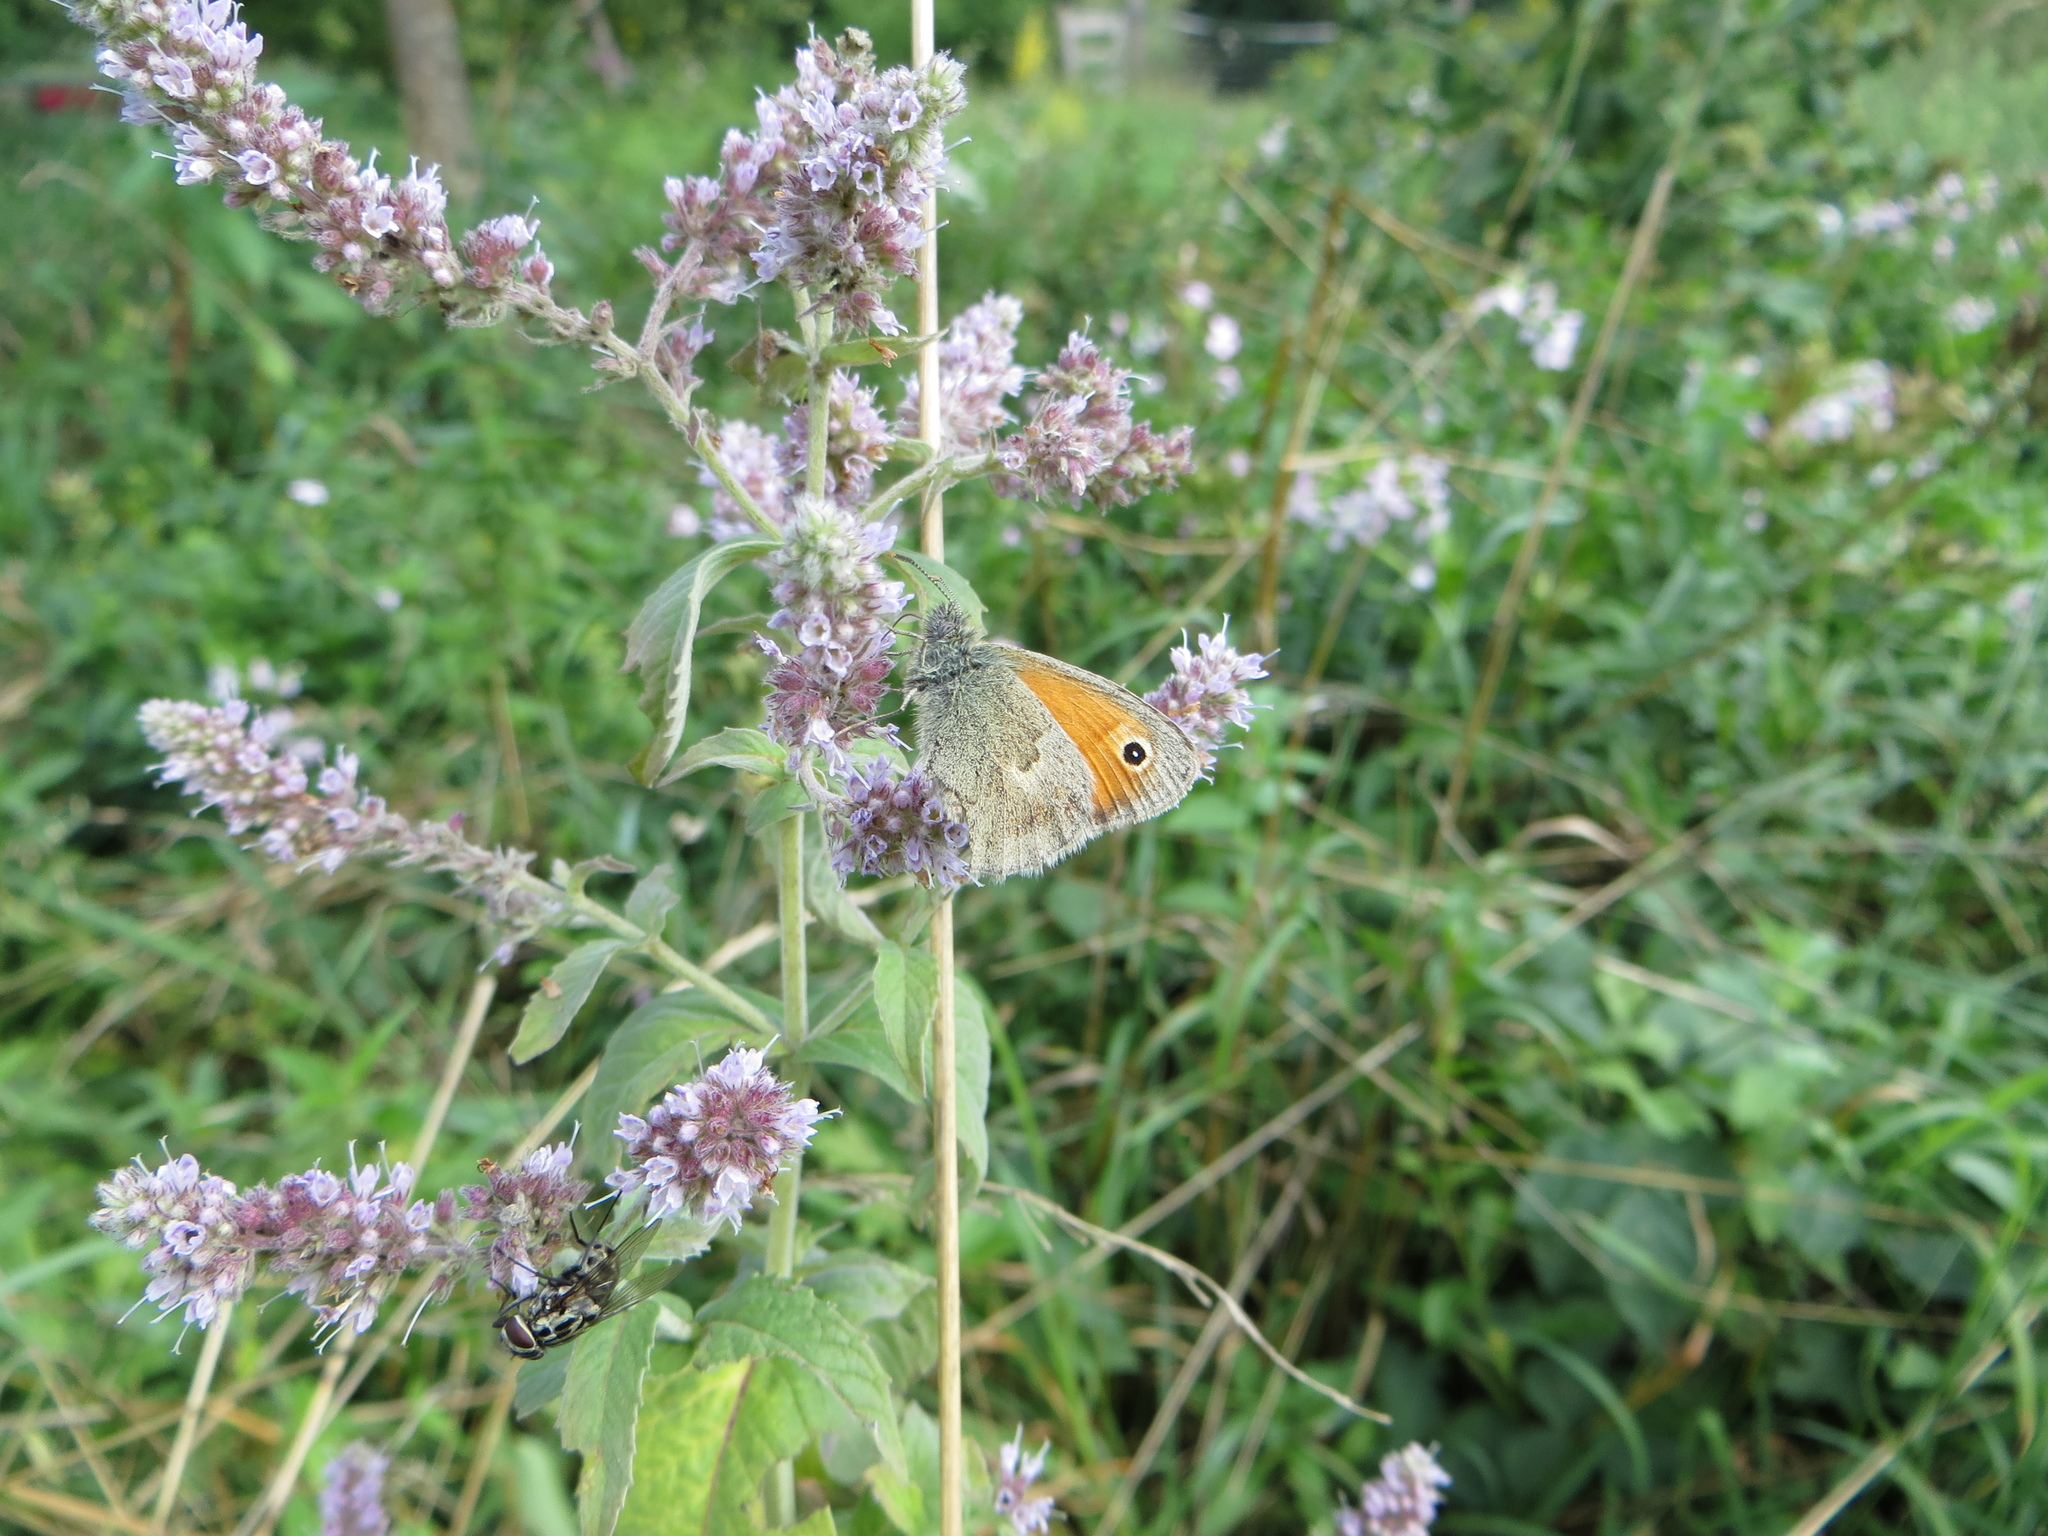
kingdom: Animalia
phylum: Arthropoda
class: Insecta
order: Lepidoptera
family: Nymphalidae
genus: Coenonympha
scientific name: Coenonympha pamphilus
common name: Small heath
